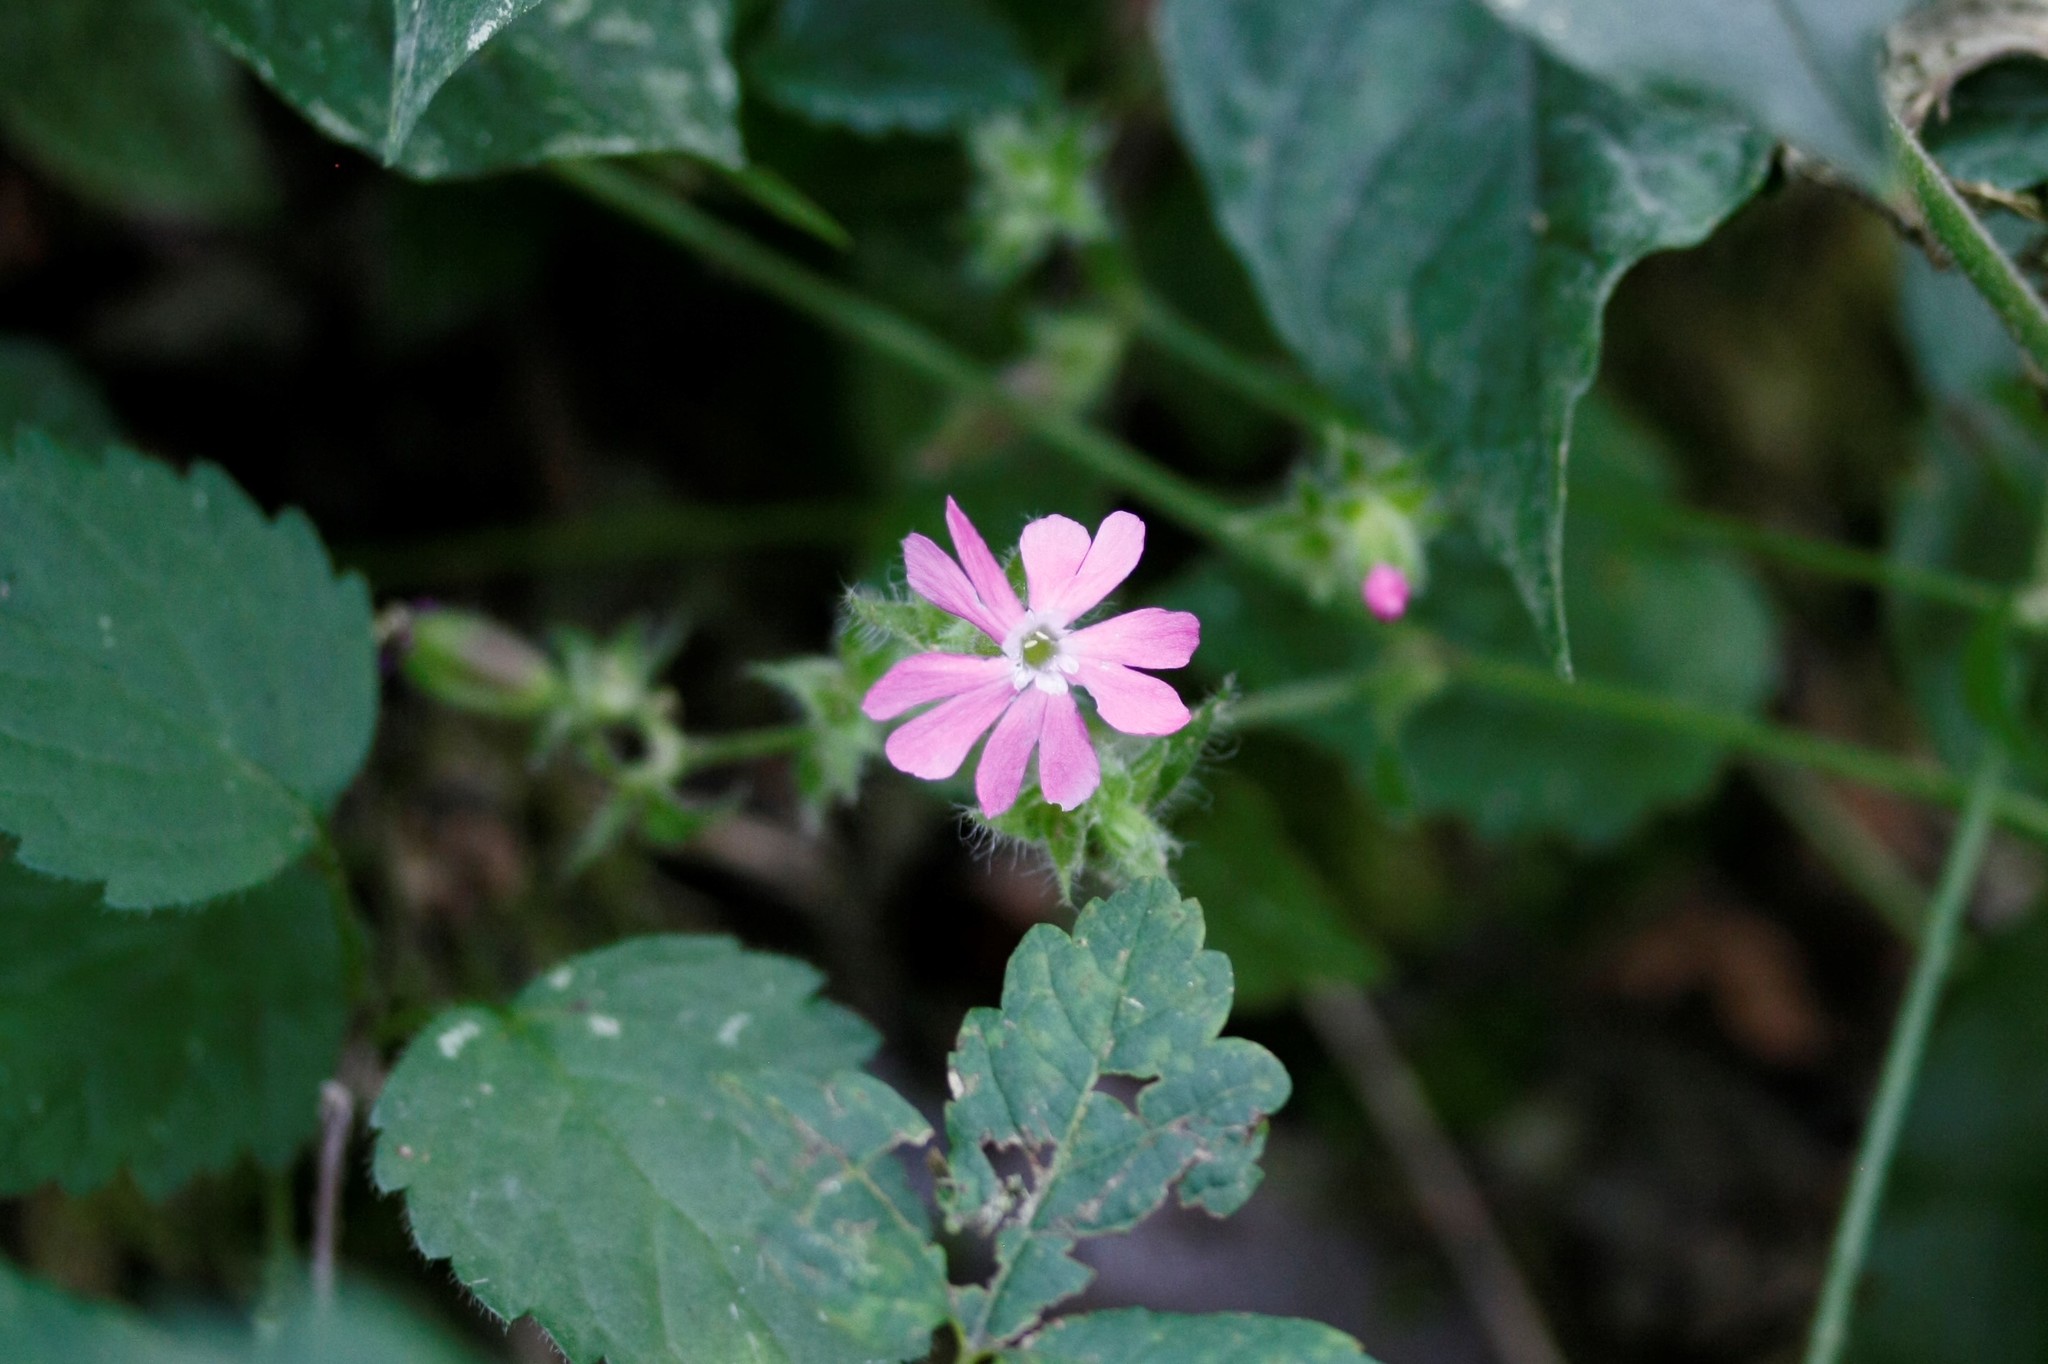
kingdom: Plantae
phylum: Tracheophyta
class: Magnoliopsida
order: Caryophyllales
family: Caryophyllaceae
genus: Silene
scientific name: Silene dioica
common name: Red campion
